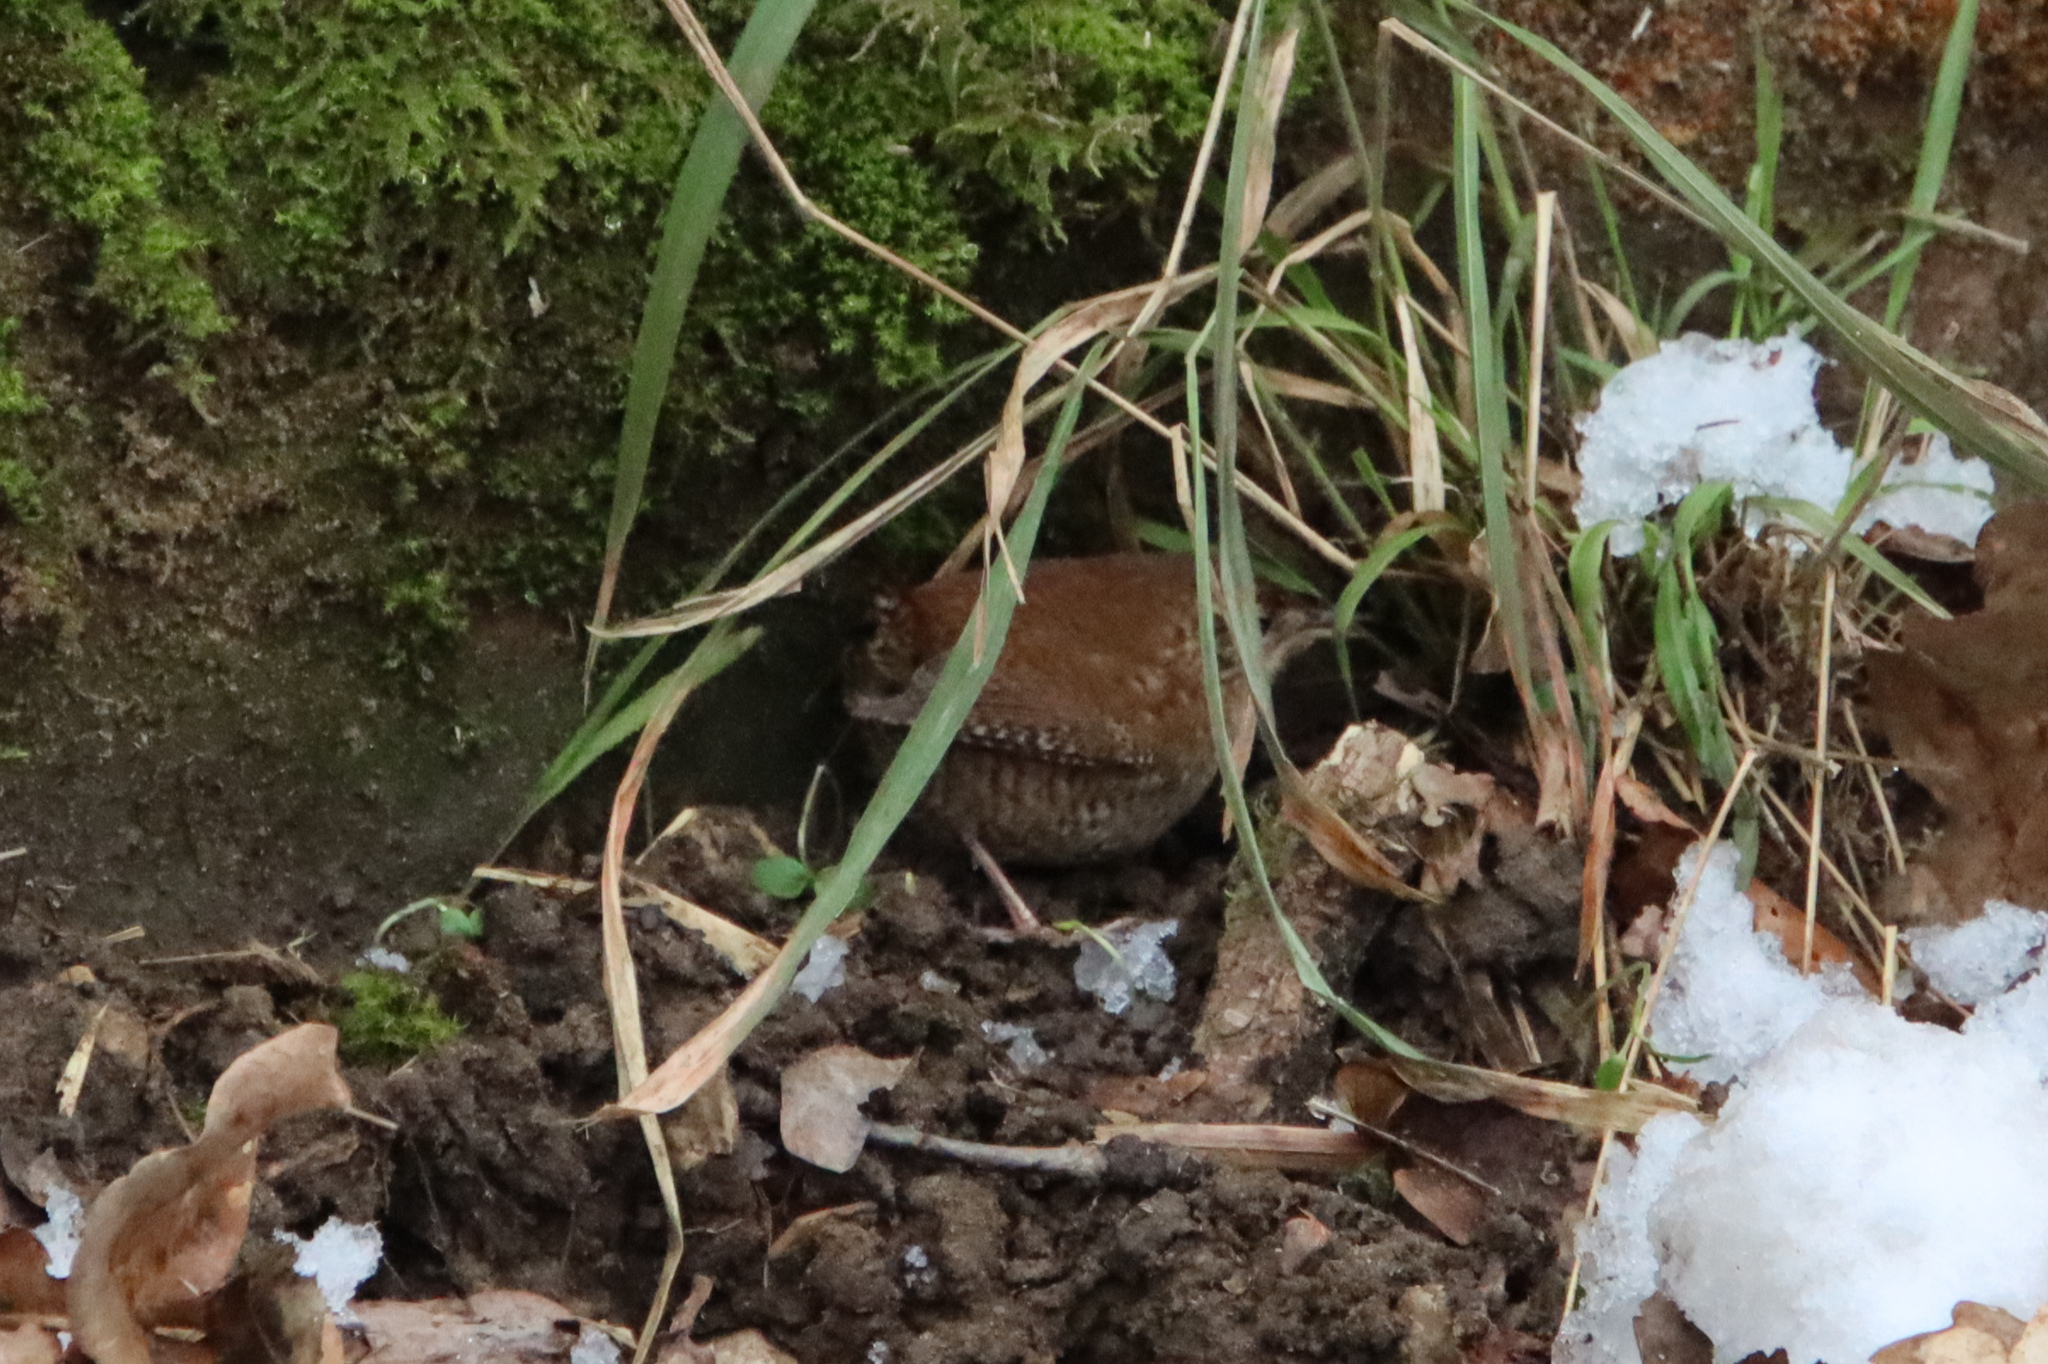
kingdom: Animalia
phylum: Chordata
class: Aves
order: Passeriformes
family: Troglodytidae
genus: Troglodytes
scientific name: Troglodytes troglodytes
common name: Eurasian wren
